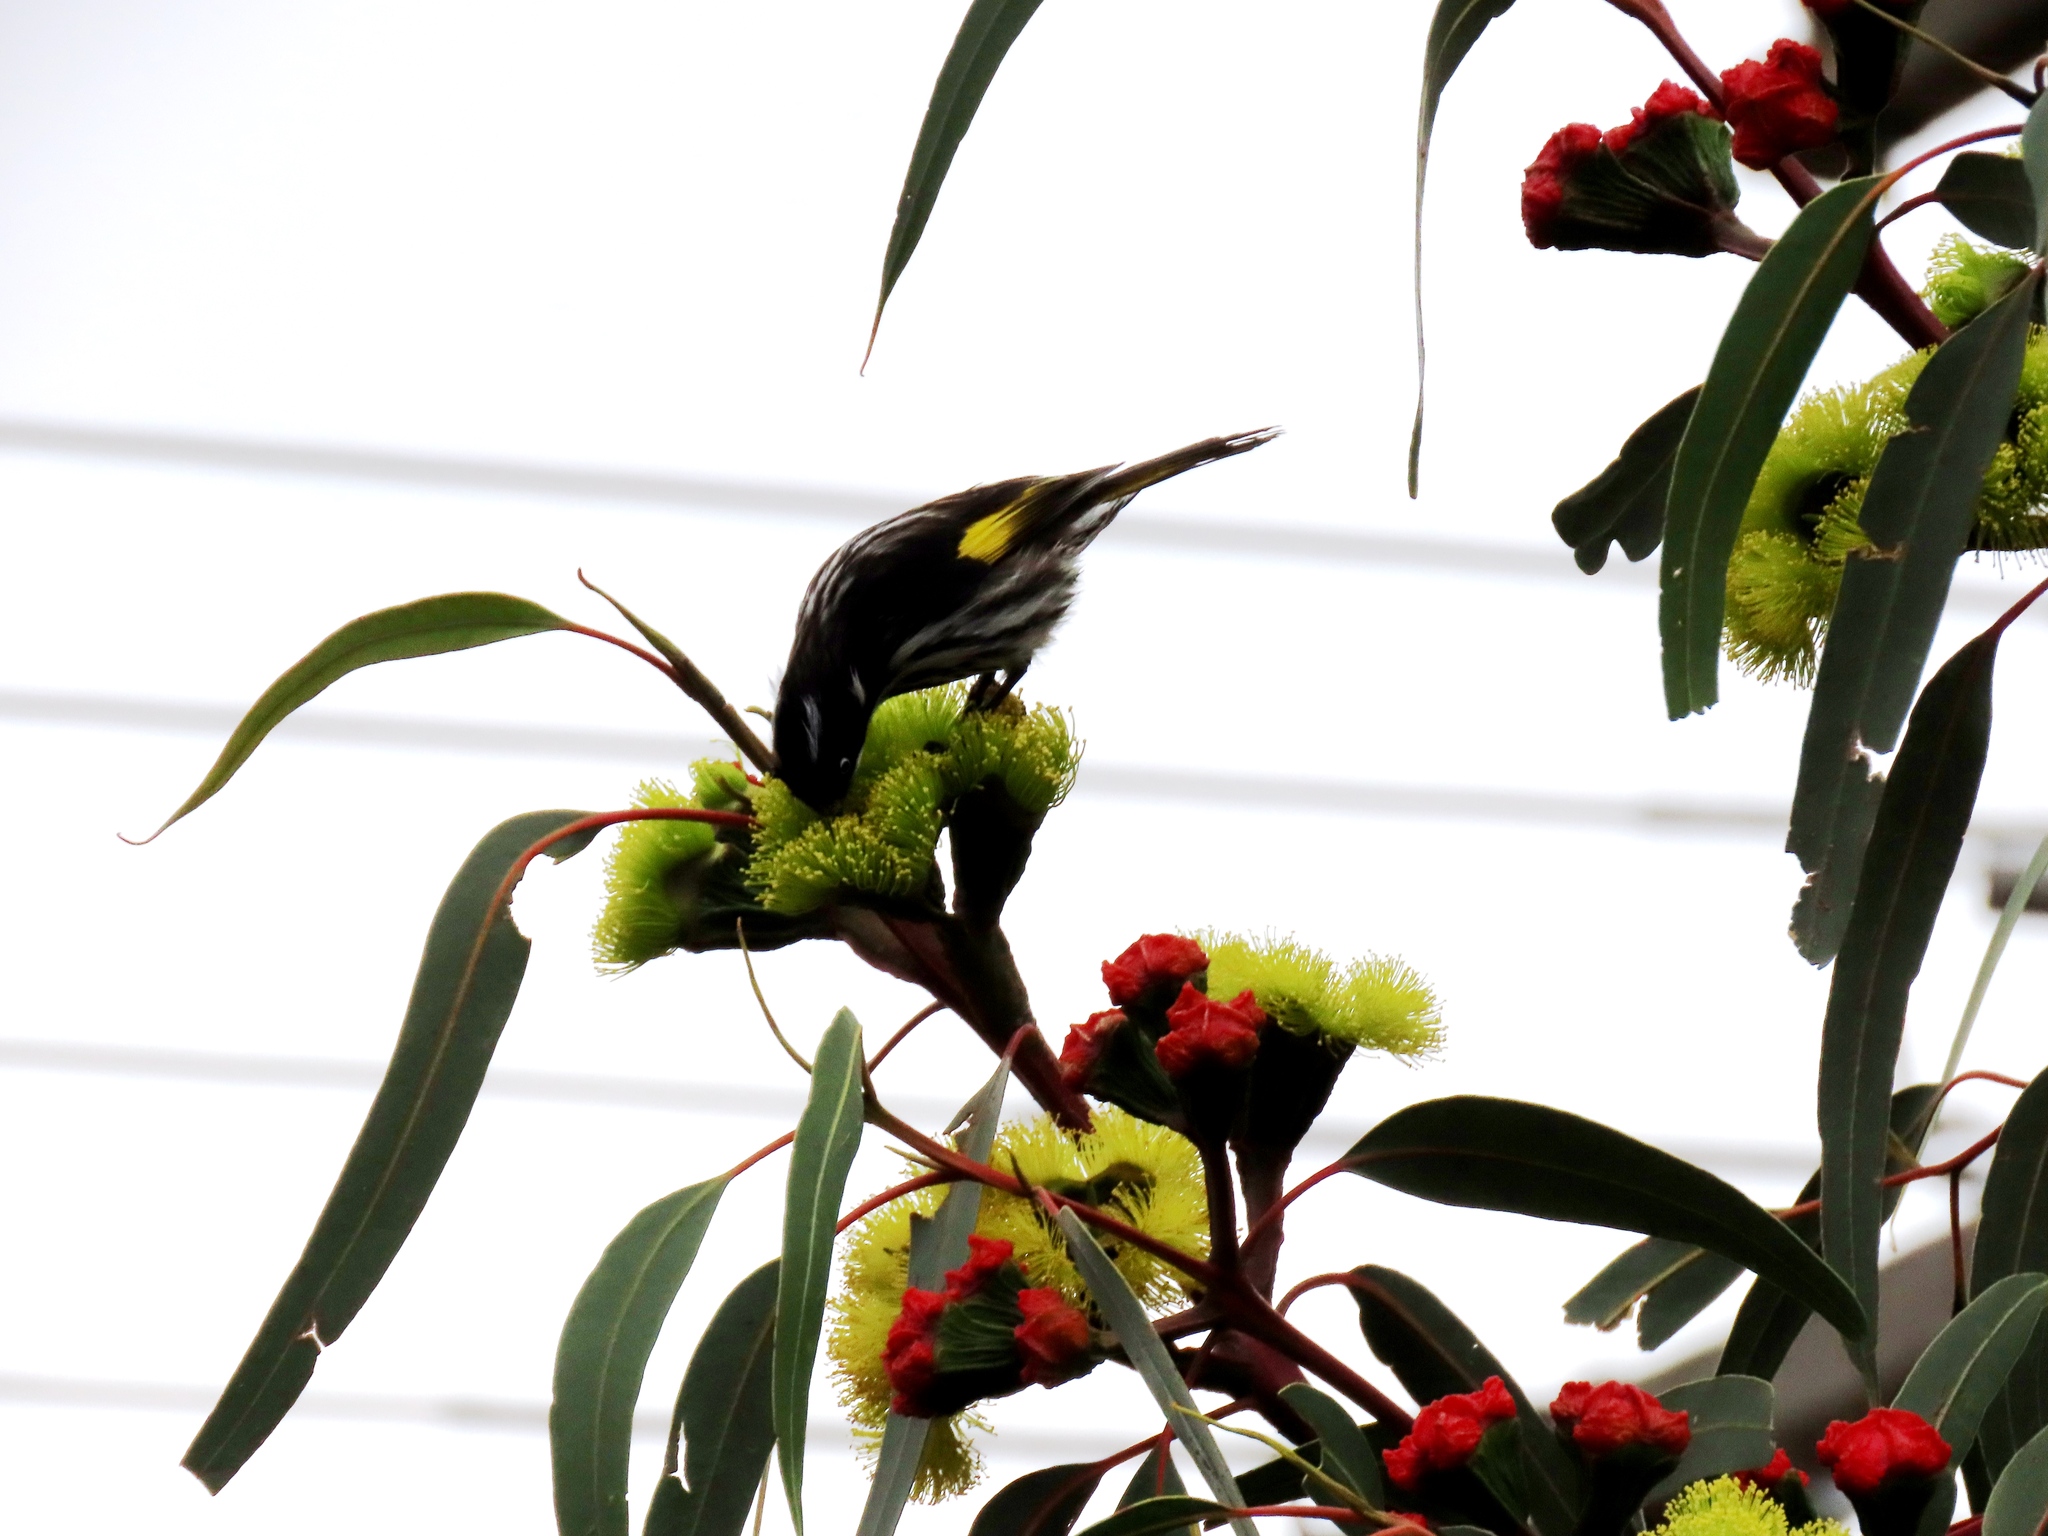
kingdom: Animalia
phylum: Chordata
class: Aves
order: Passeriformes
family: Meliphagidae
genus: Phylidonyris
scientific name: Phylidonyris novaehollandiae
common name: New holland honeyeater
